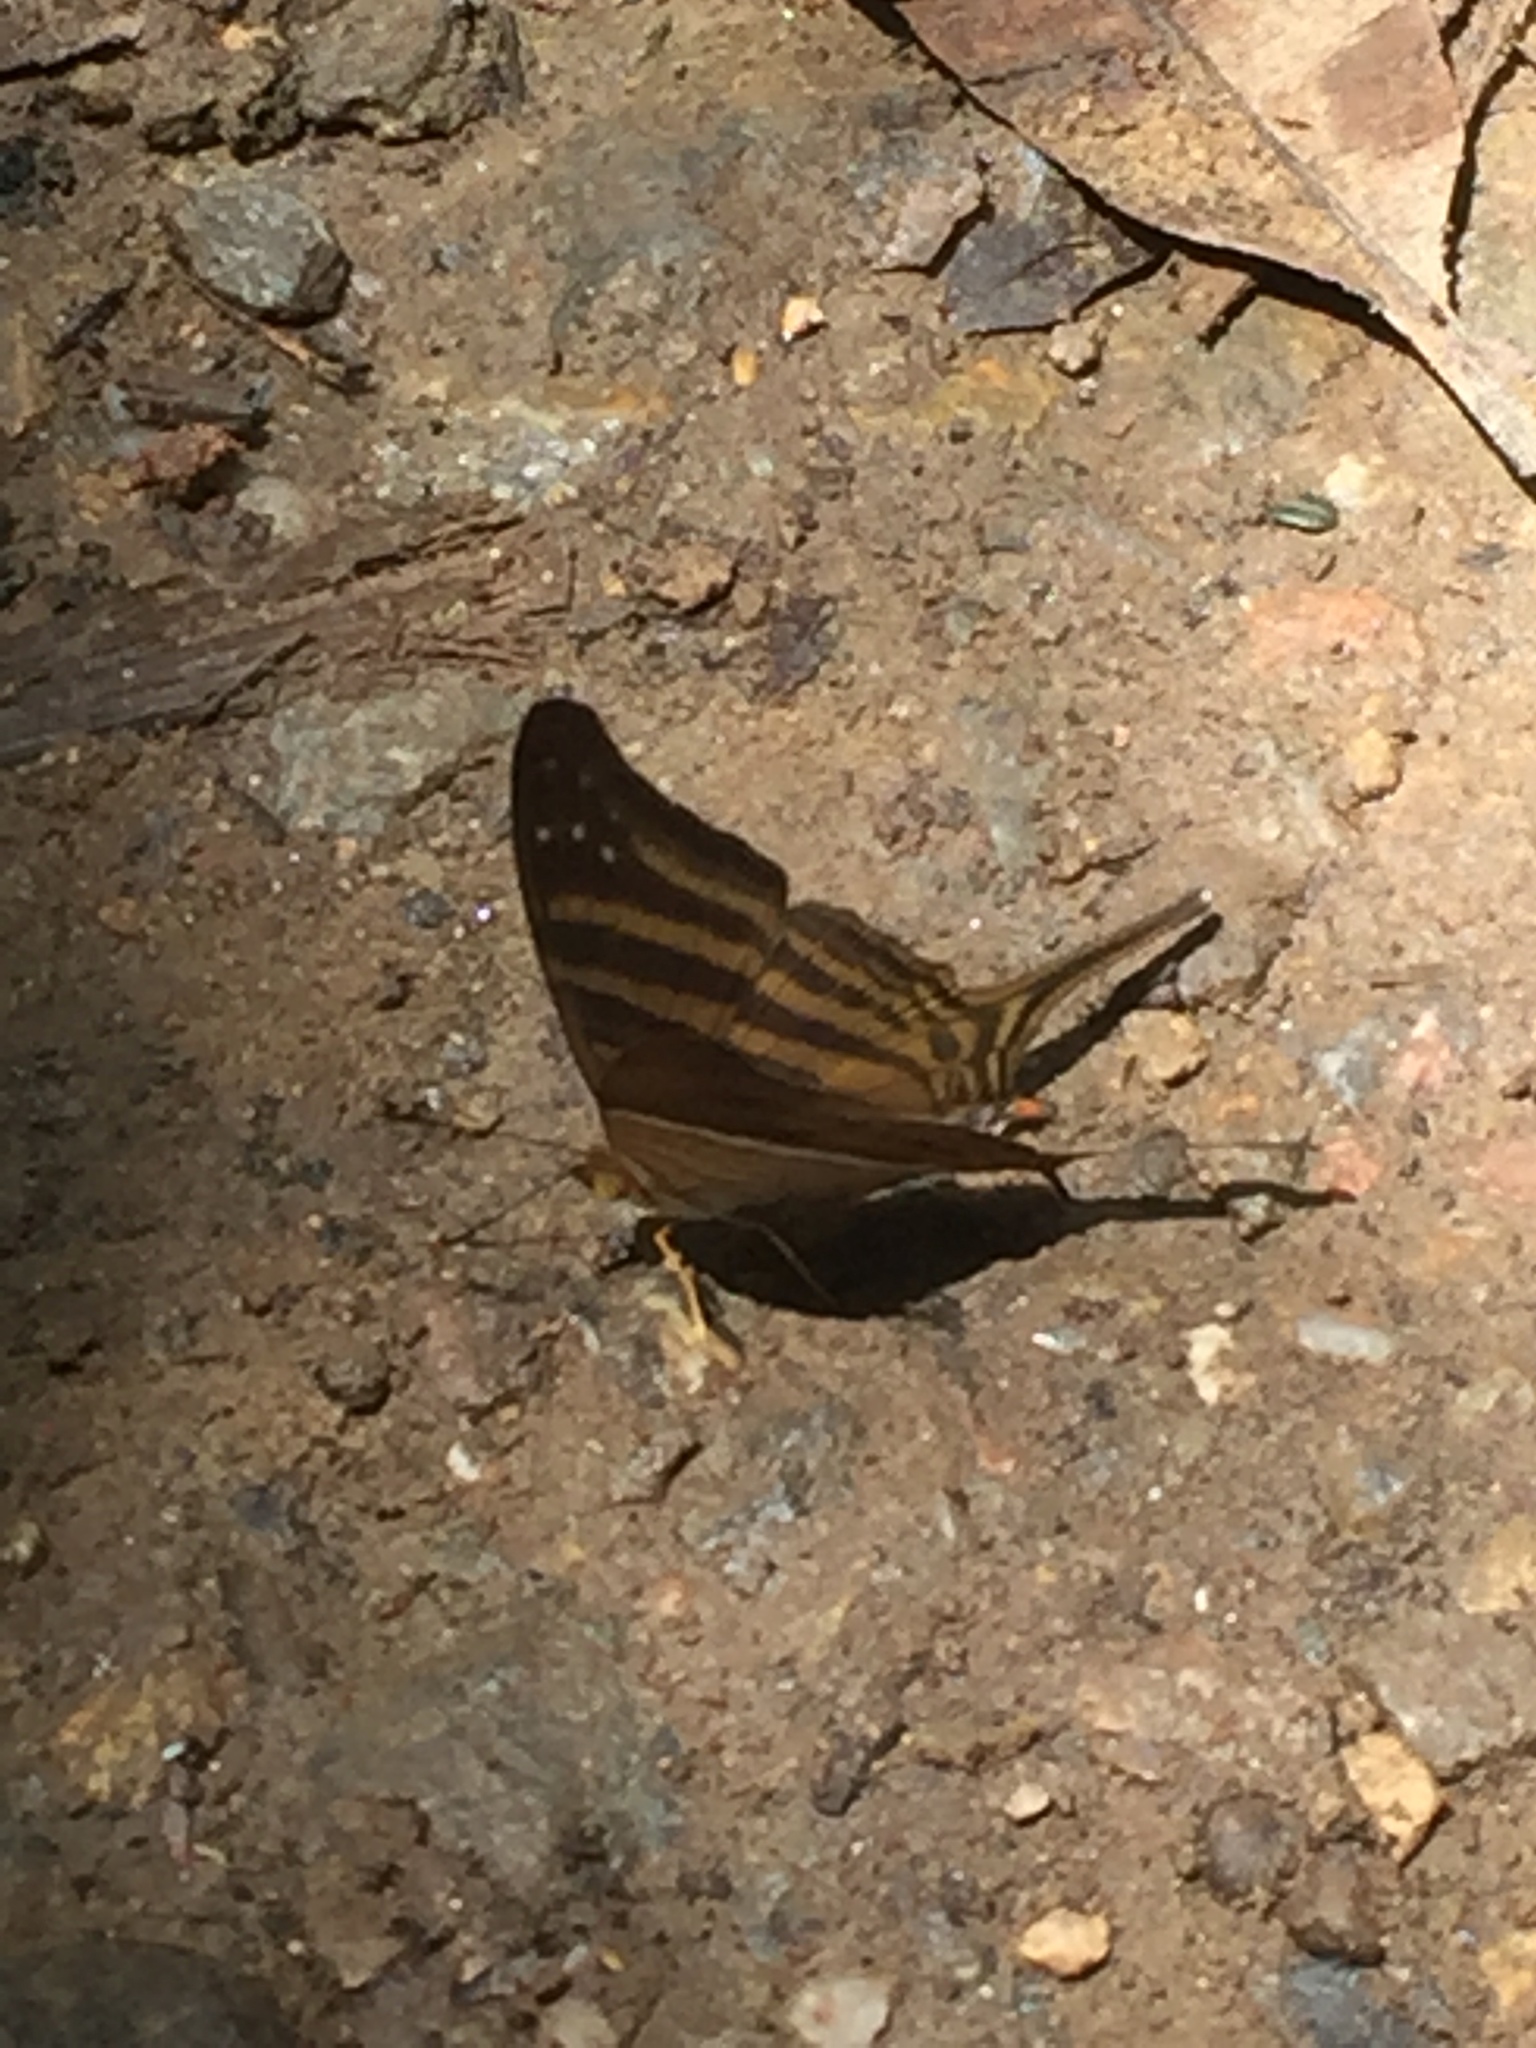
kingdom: Animalia
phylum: Arthropoda
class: Insecta
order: Lepidoptera
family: Nymphalidae
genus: Marpesia
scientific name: Marpesia chiron
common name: Many-banded daggerwing
